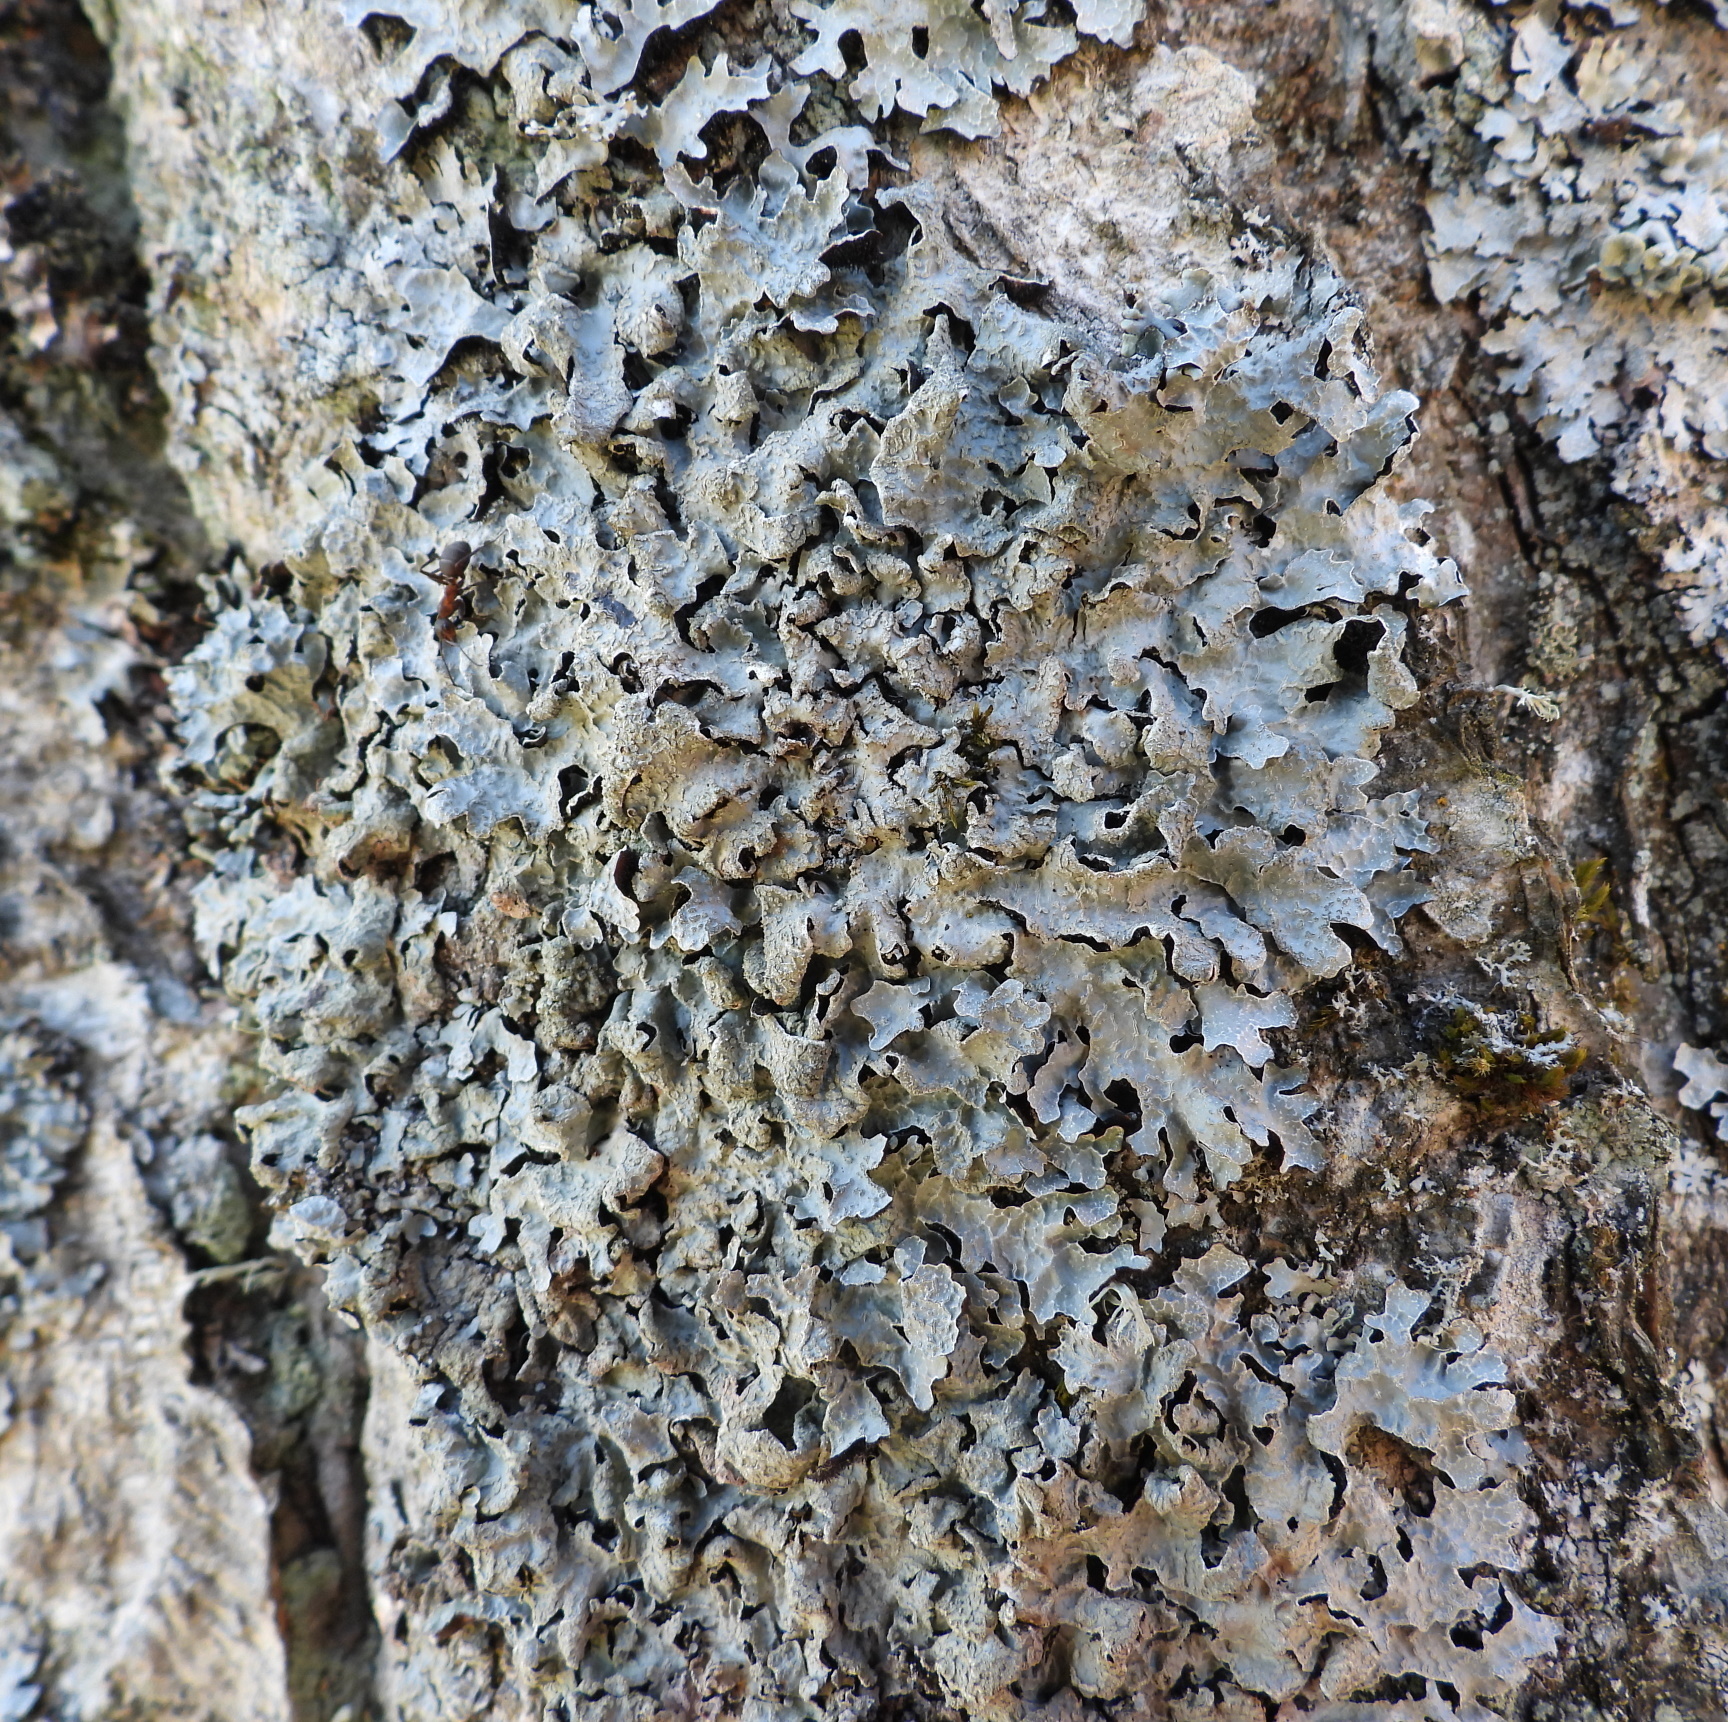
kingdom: Fungi
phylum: Ascomycota
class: Lecanoromycetes
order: Lecanorales
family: Parmeliaceae
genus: Parmelia
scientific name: Parmelia sulcata
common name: Netted shield lichen
